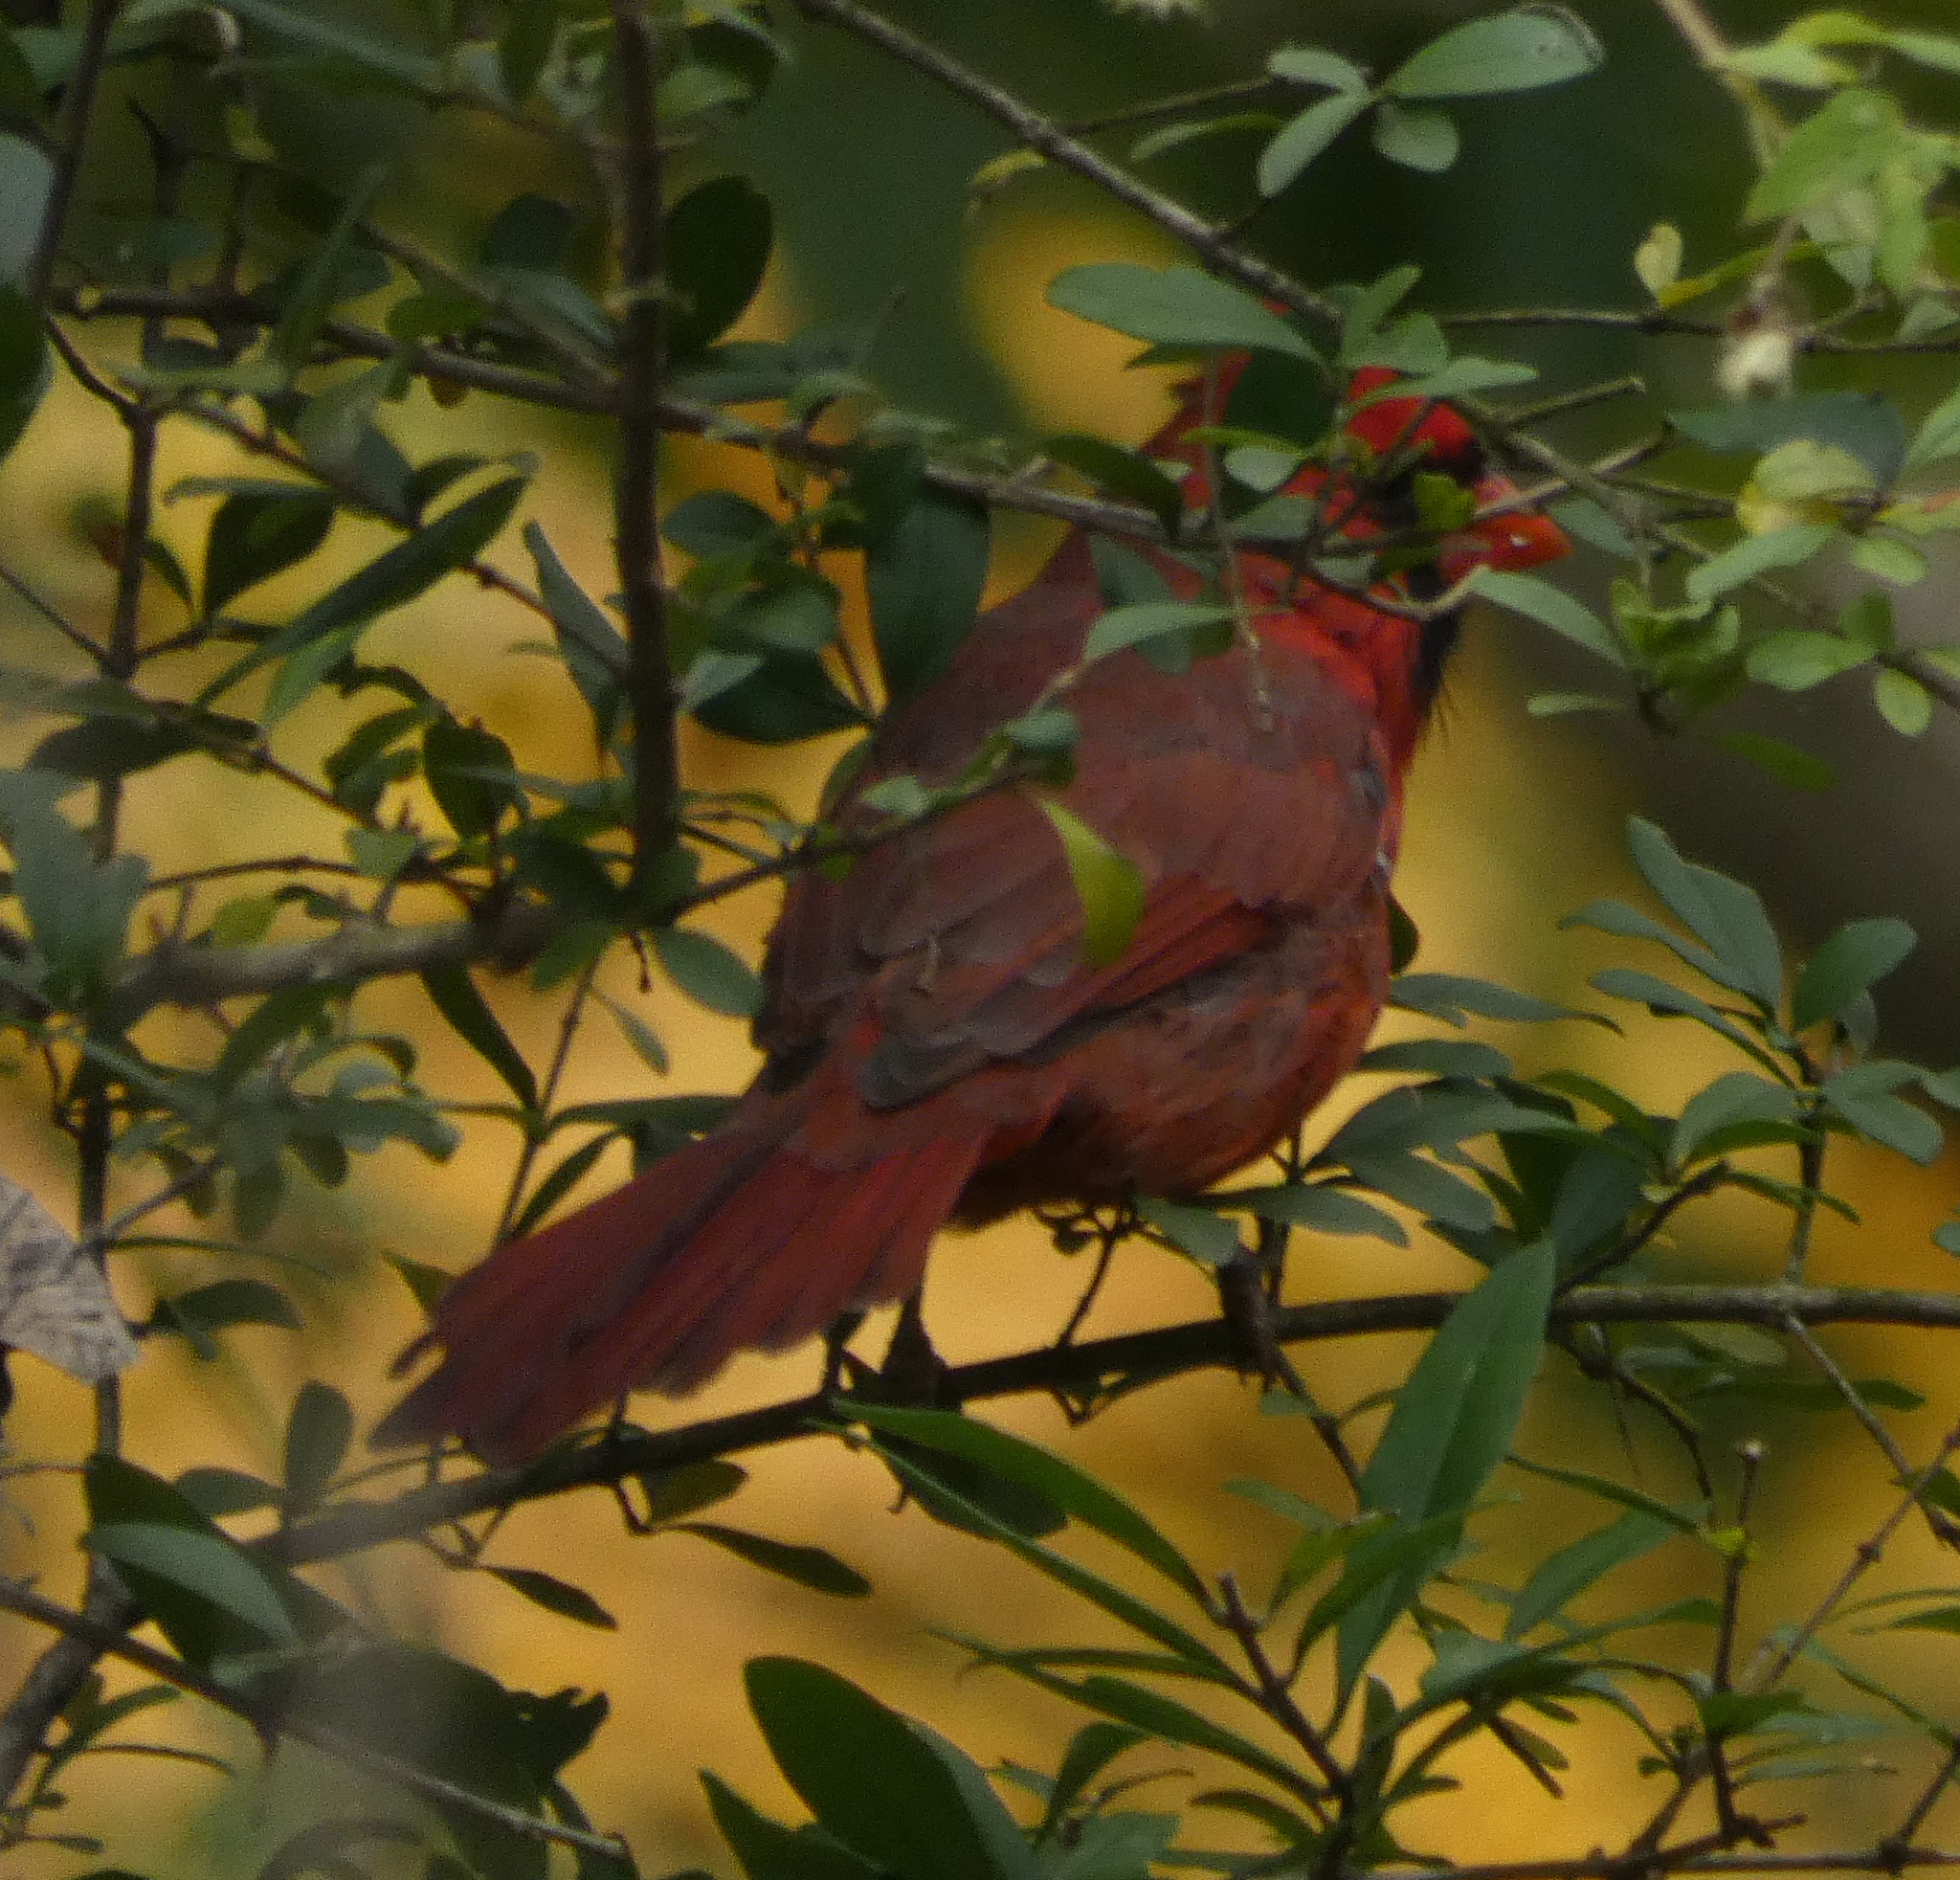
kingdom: Animalia
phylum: Chordata
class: Aves
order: Passeriformes
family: Cardinalidae
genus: Cardinalis
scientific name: Cardinalis cardinalis
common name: Northern cardinal
